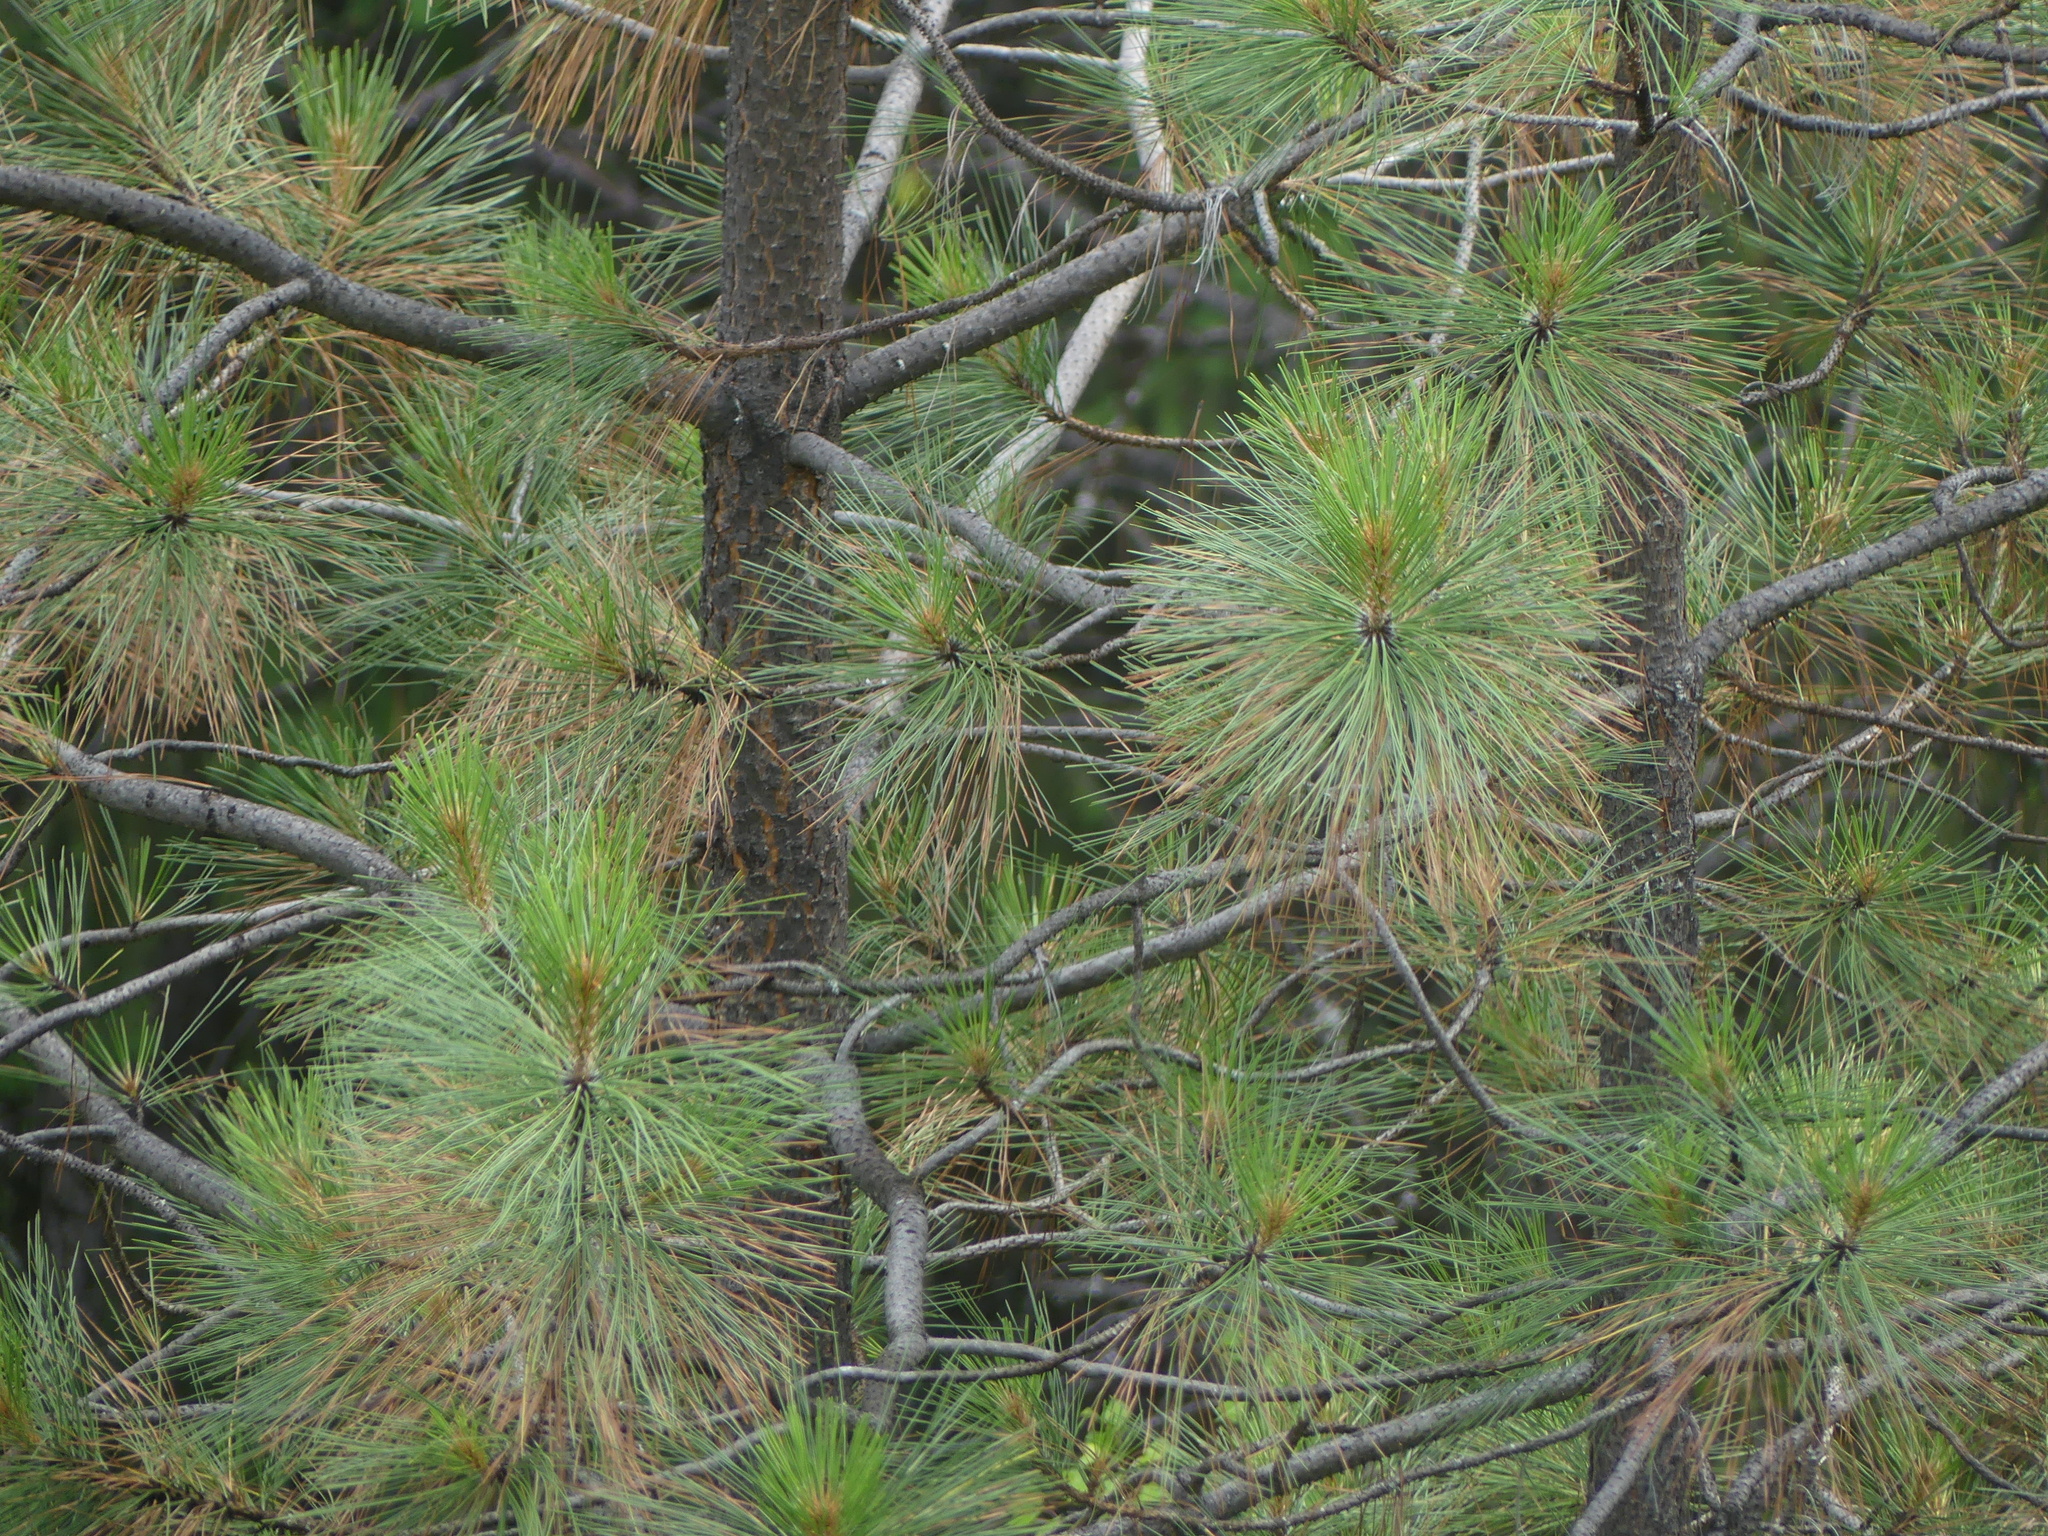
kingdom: Plantae
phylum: Tracheophyta
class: Pinopsida
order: Pinales
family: Pinaceae
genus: Pinus
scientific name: Pinus ponderosa
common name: Western yellow-pine
